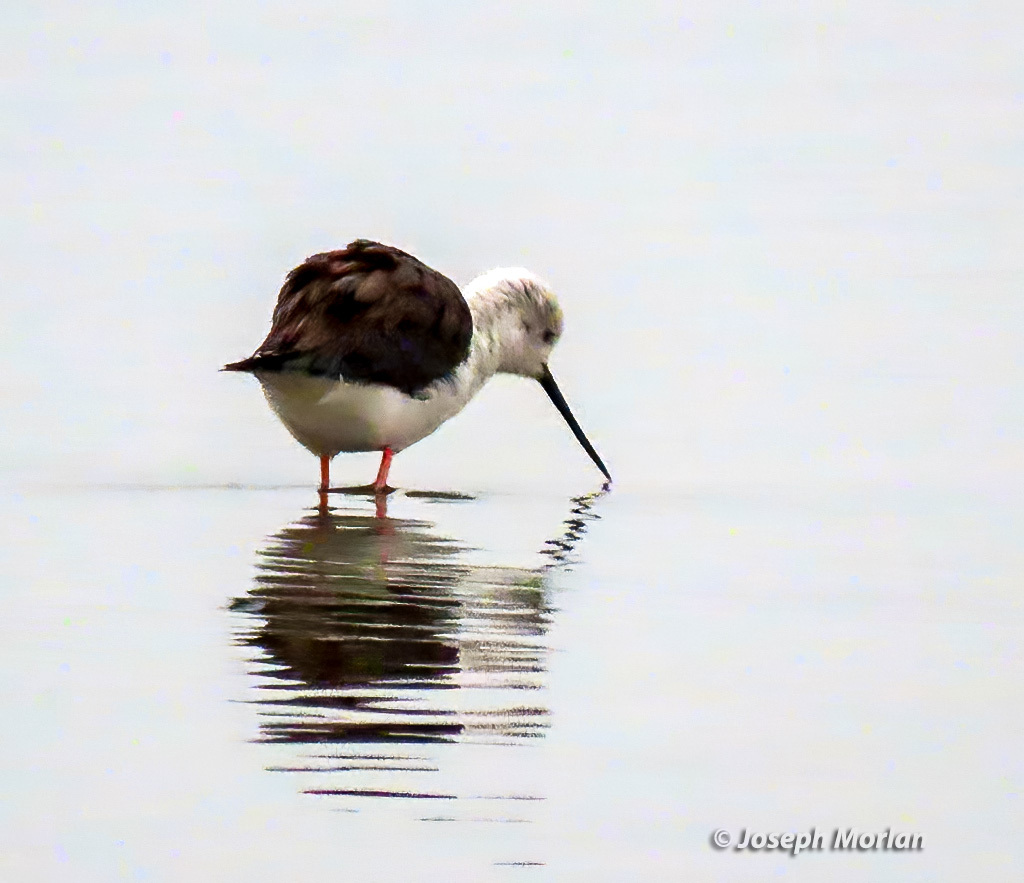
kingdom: Animalia
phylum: Chordata
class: Aves
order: Charadriiformes
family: Recurvirostridae
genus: Himantopus
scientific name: Himantopus himantopus
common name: Black-winged stilt
